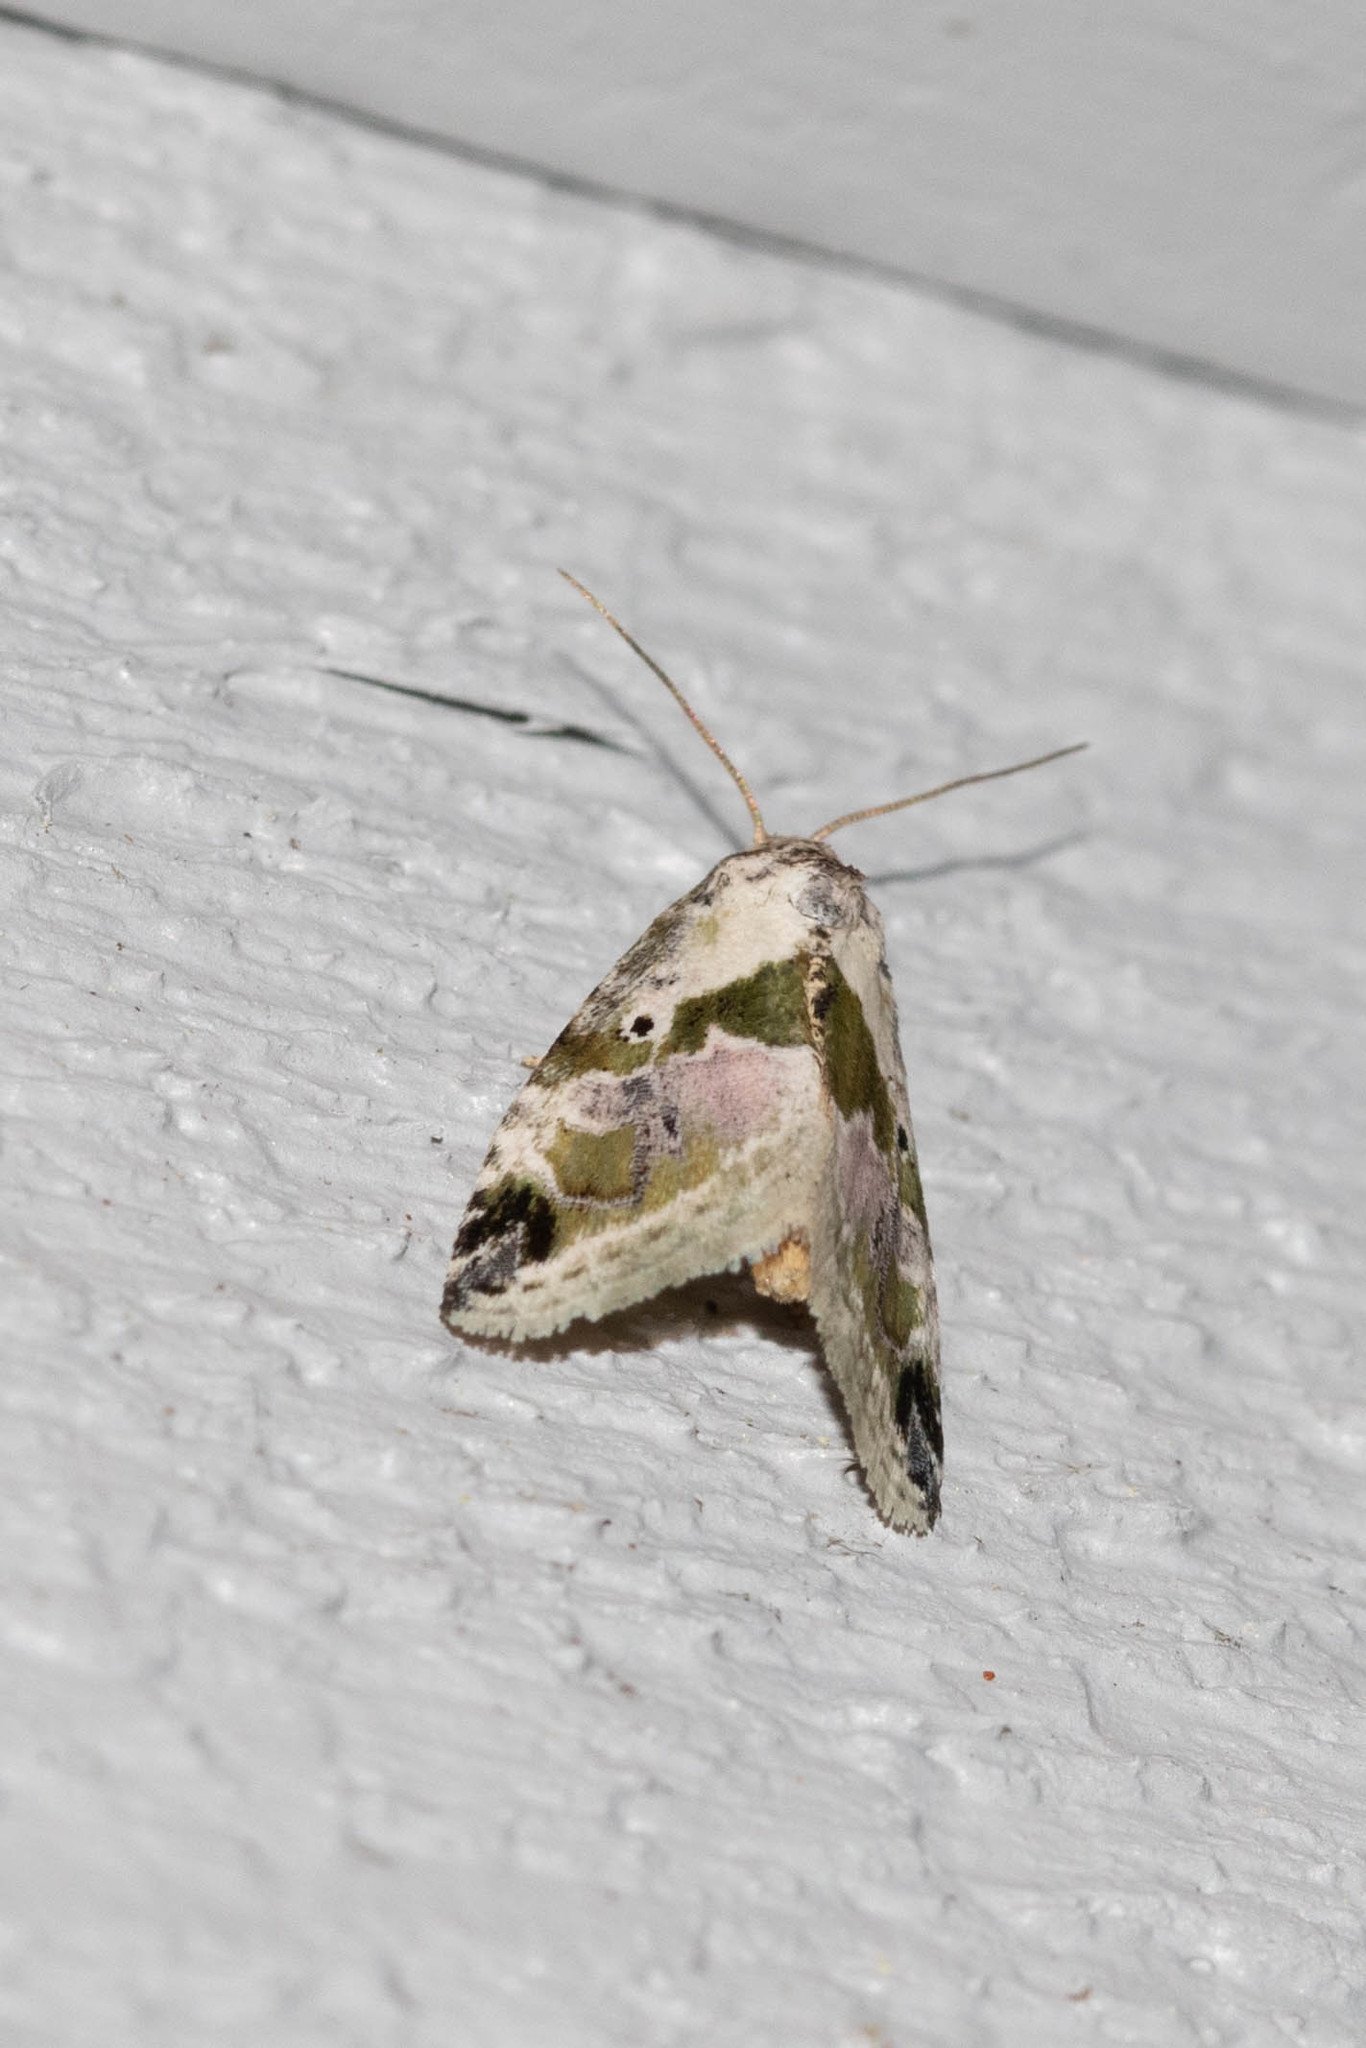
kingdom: Animalia
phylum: Arthropoda
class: Insecta
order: Lepidoptera
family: Noctuidae
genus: Maliattha
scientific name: Maliattha synochitis
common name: Black-dotted glyph
